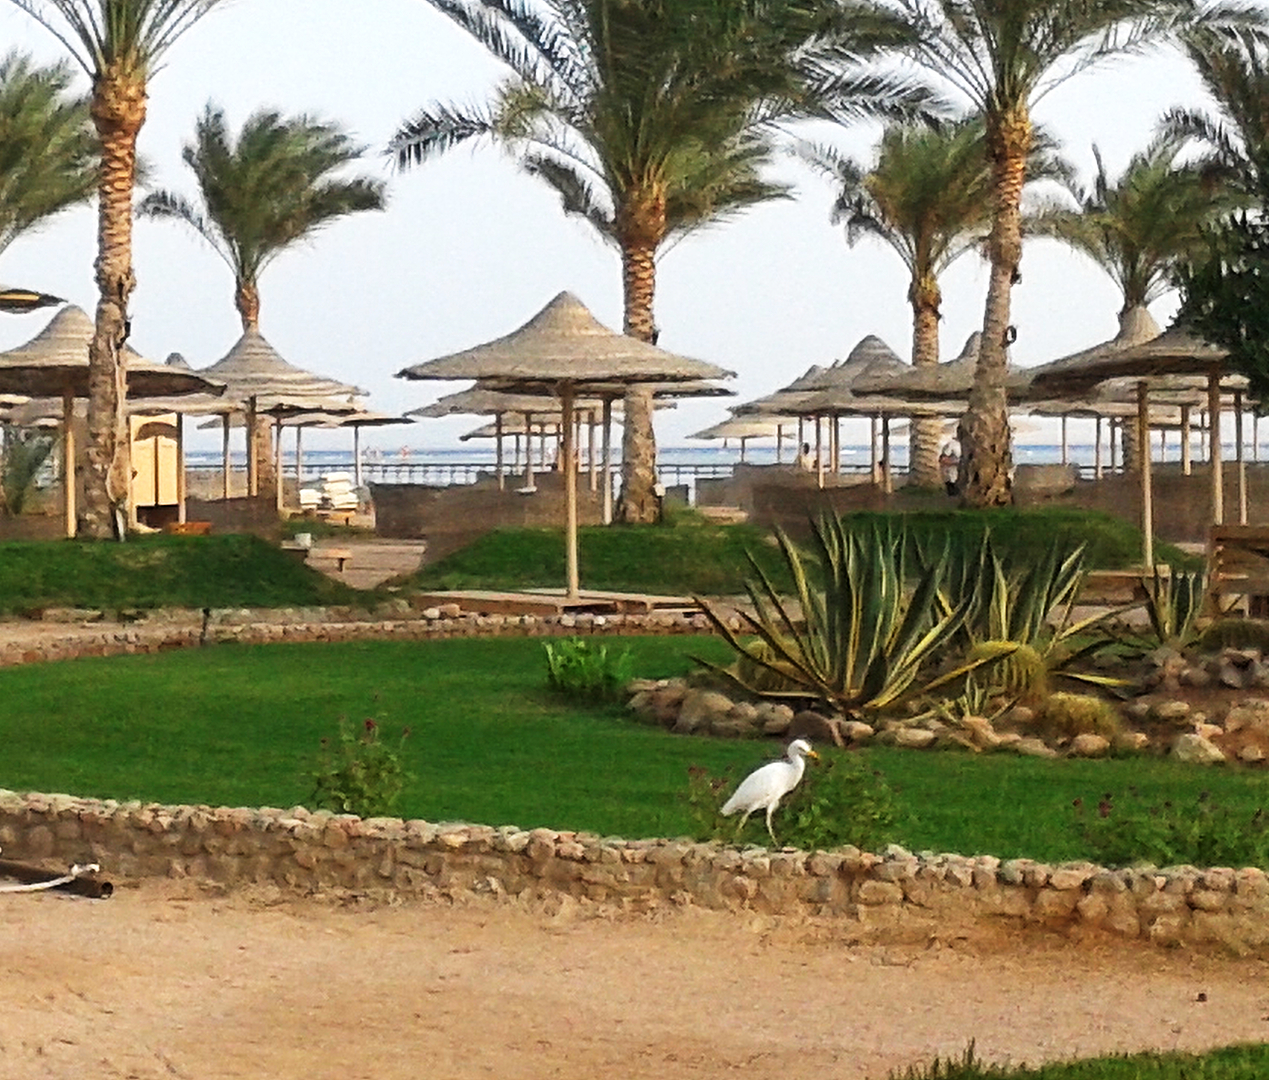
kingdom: Animalia
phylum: Chordata
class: Aves
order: Pelecaniformes
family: Ardeidae
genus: Bubulcus
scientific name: Bubulcus ibis
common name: Cattle egret
